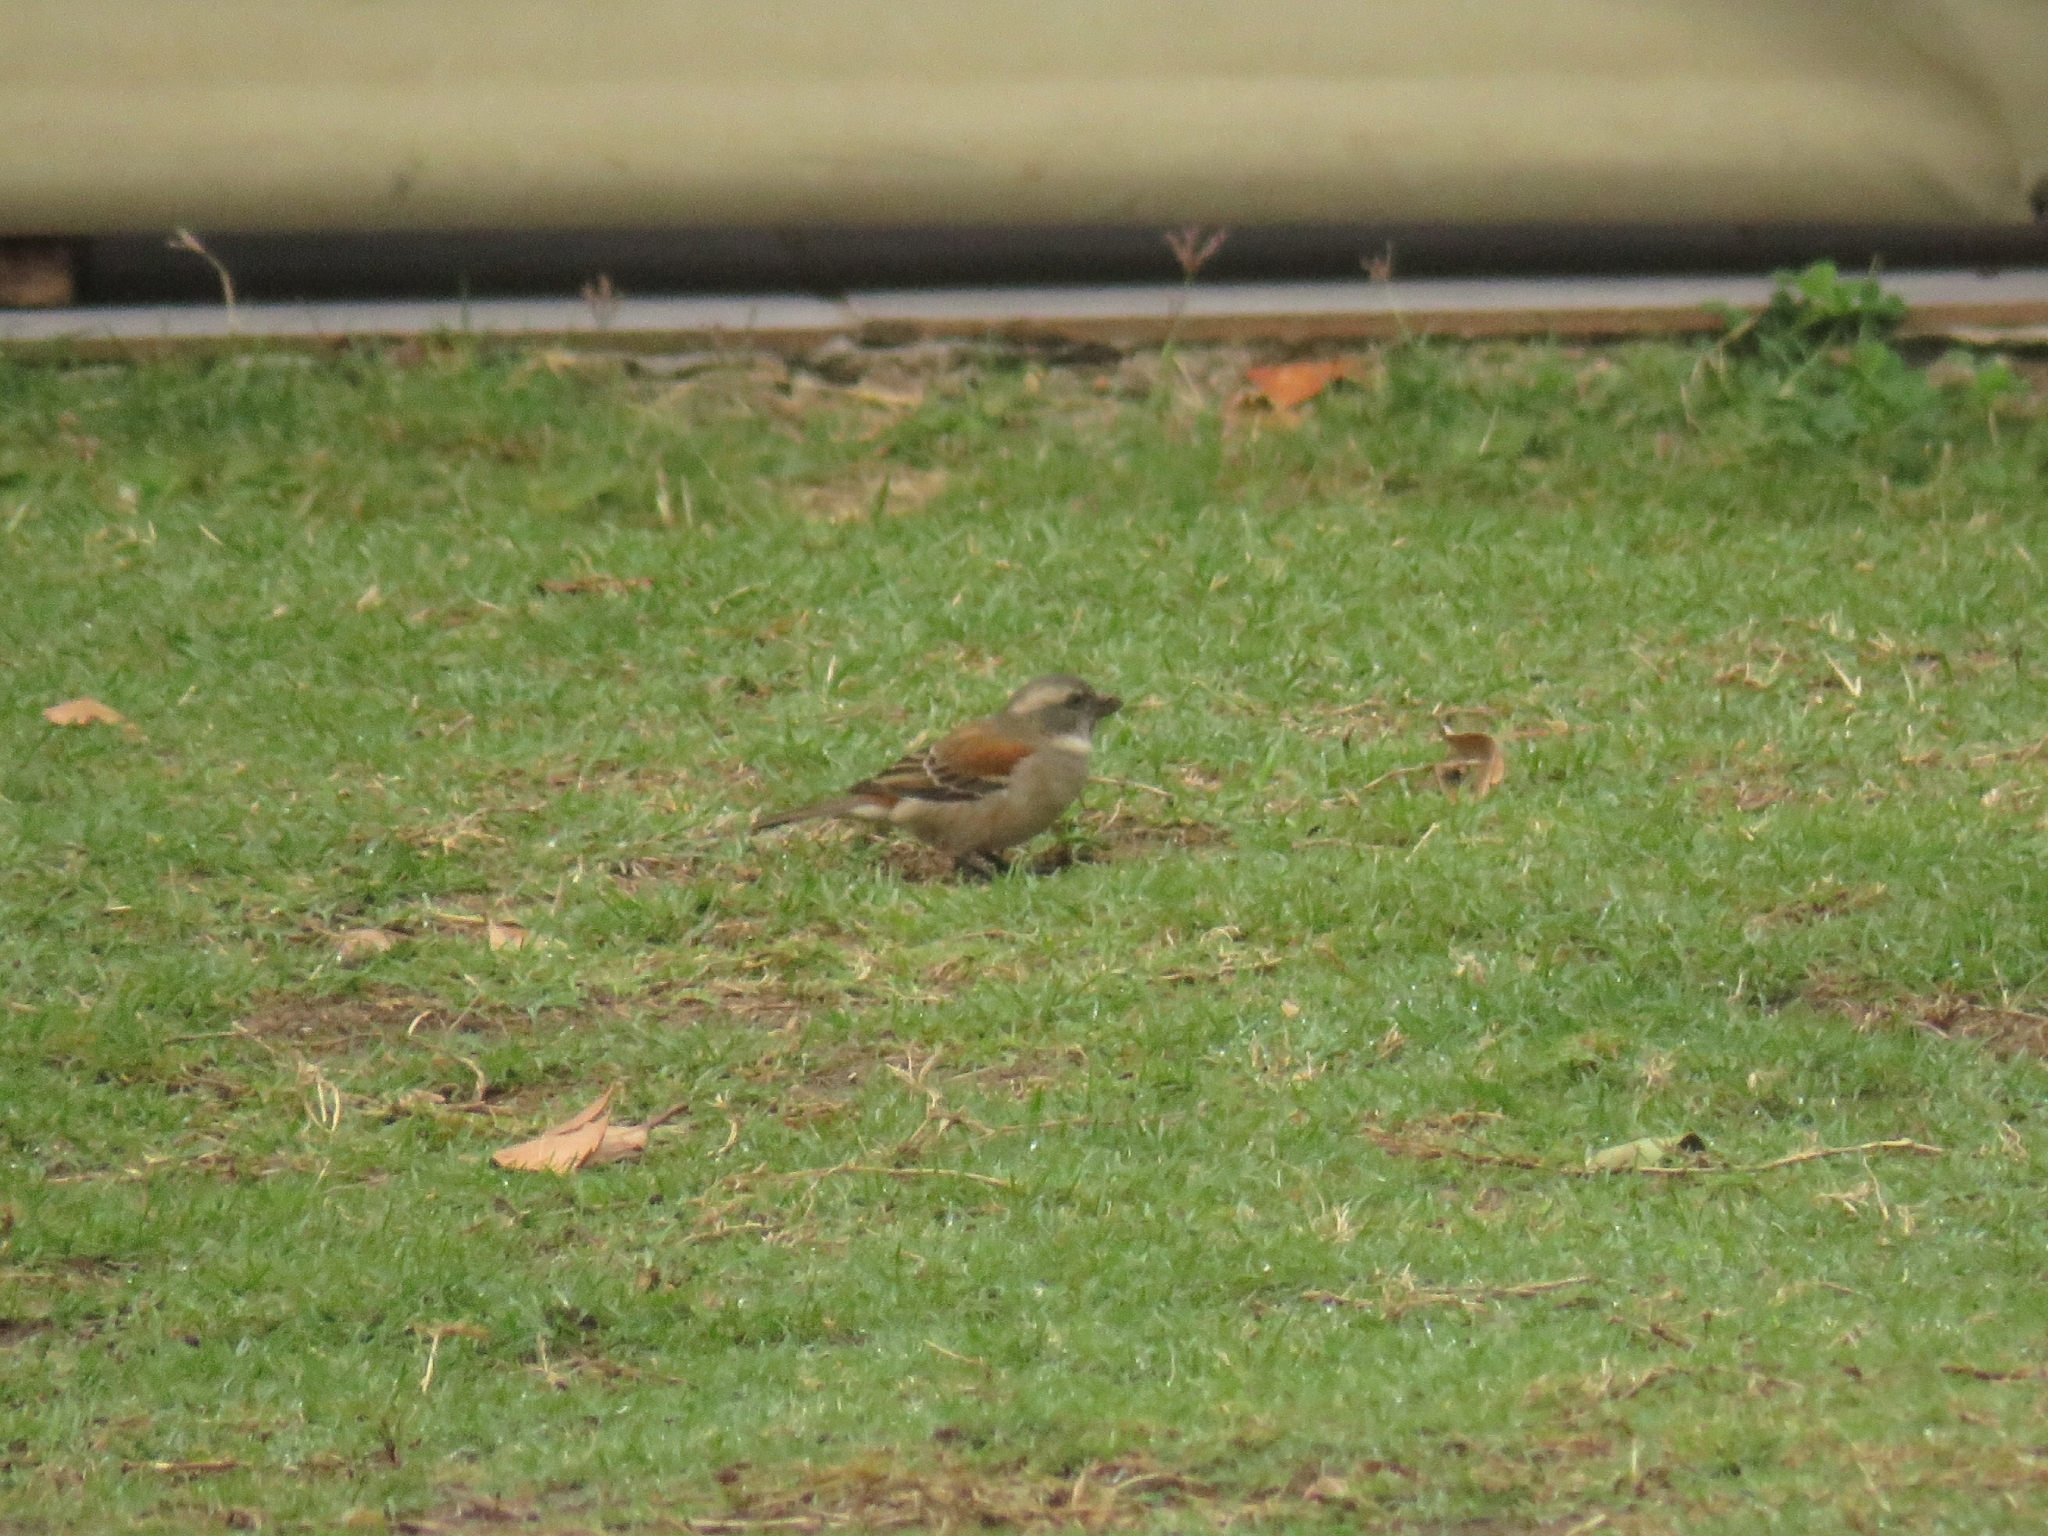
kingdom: Animalia
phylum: Chordata
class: Aves
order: Passeriformes
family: Passeridae
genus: Passer
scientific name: Passer melanurus
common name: Cape sparrow
